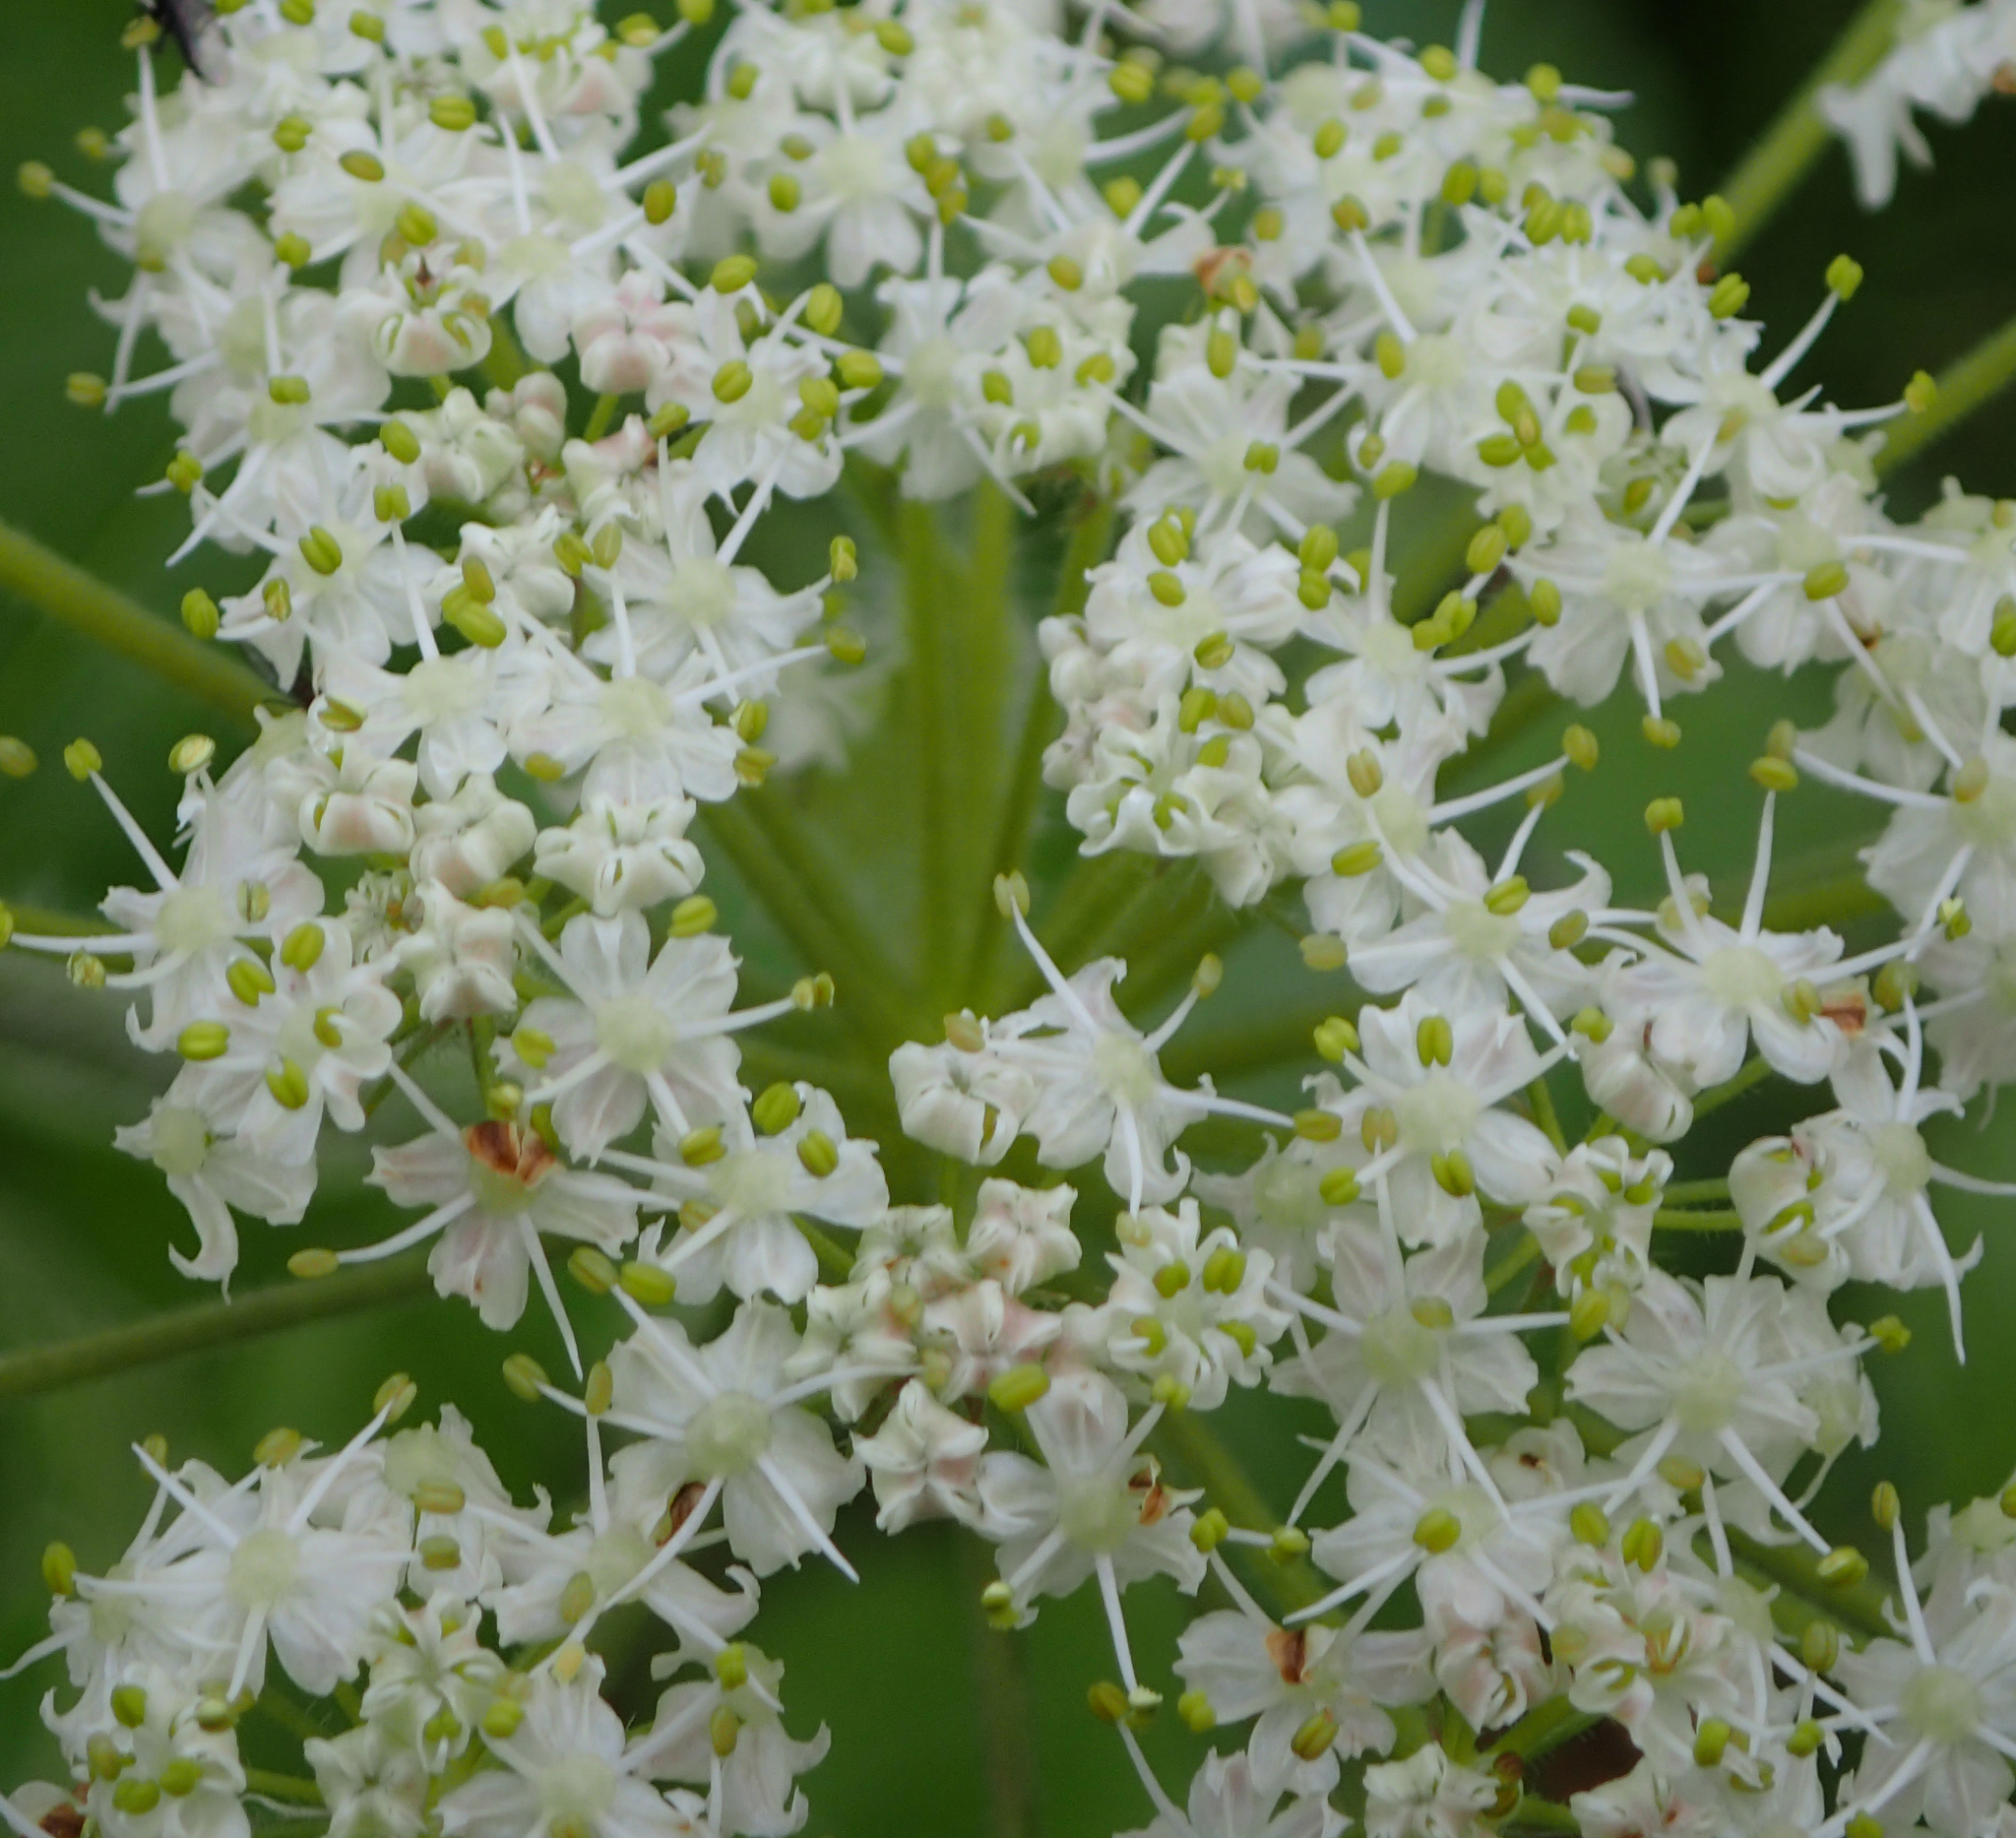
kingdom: Plantae
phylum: Tracheophyta
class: Magnoliopsida
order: Apiales
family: Apiaceae
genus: Heracleum
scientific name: Heracleum maximum
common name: American cow parsnip
